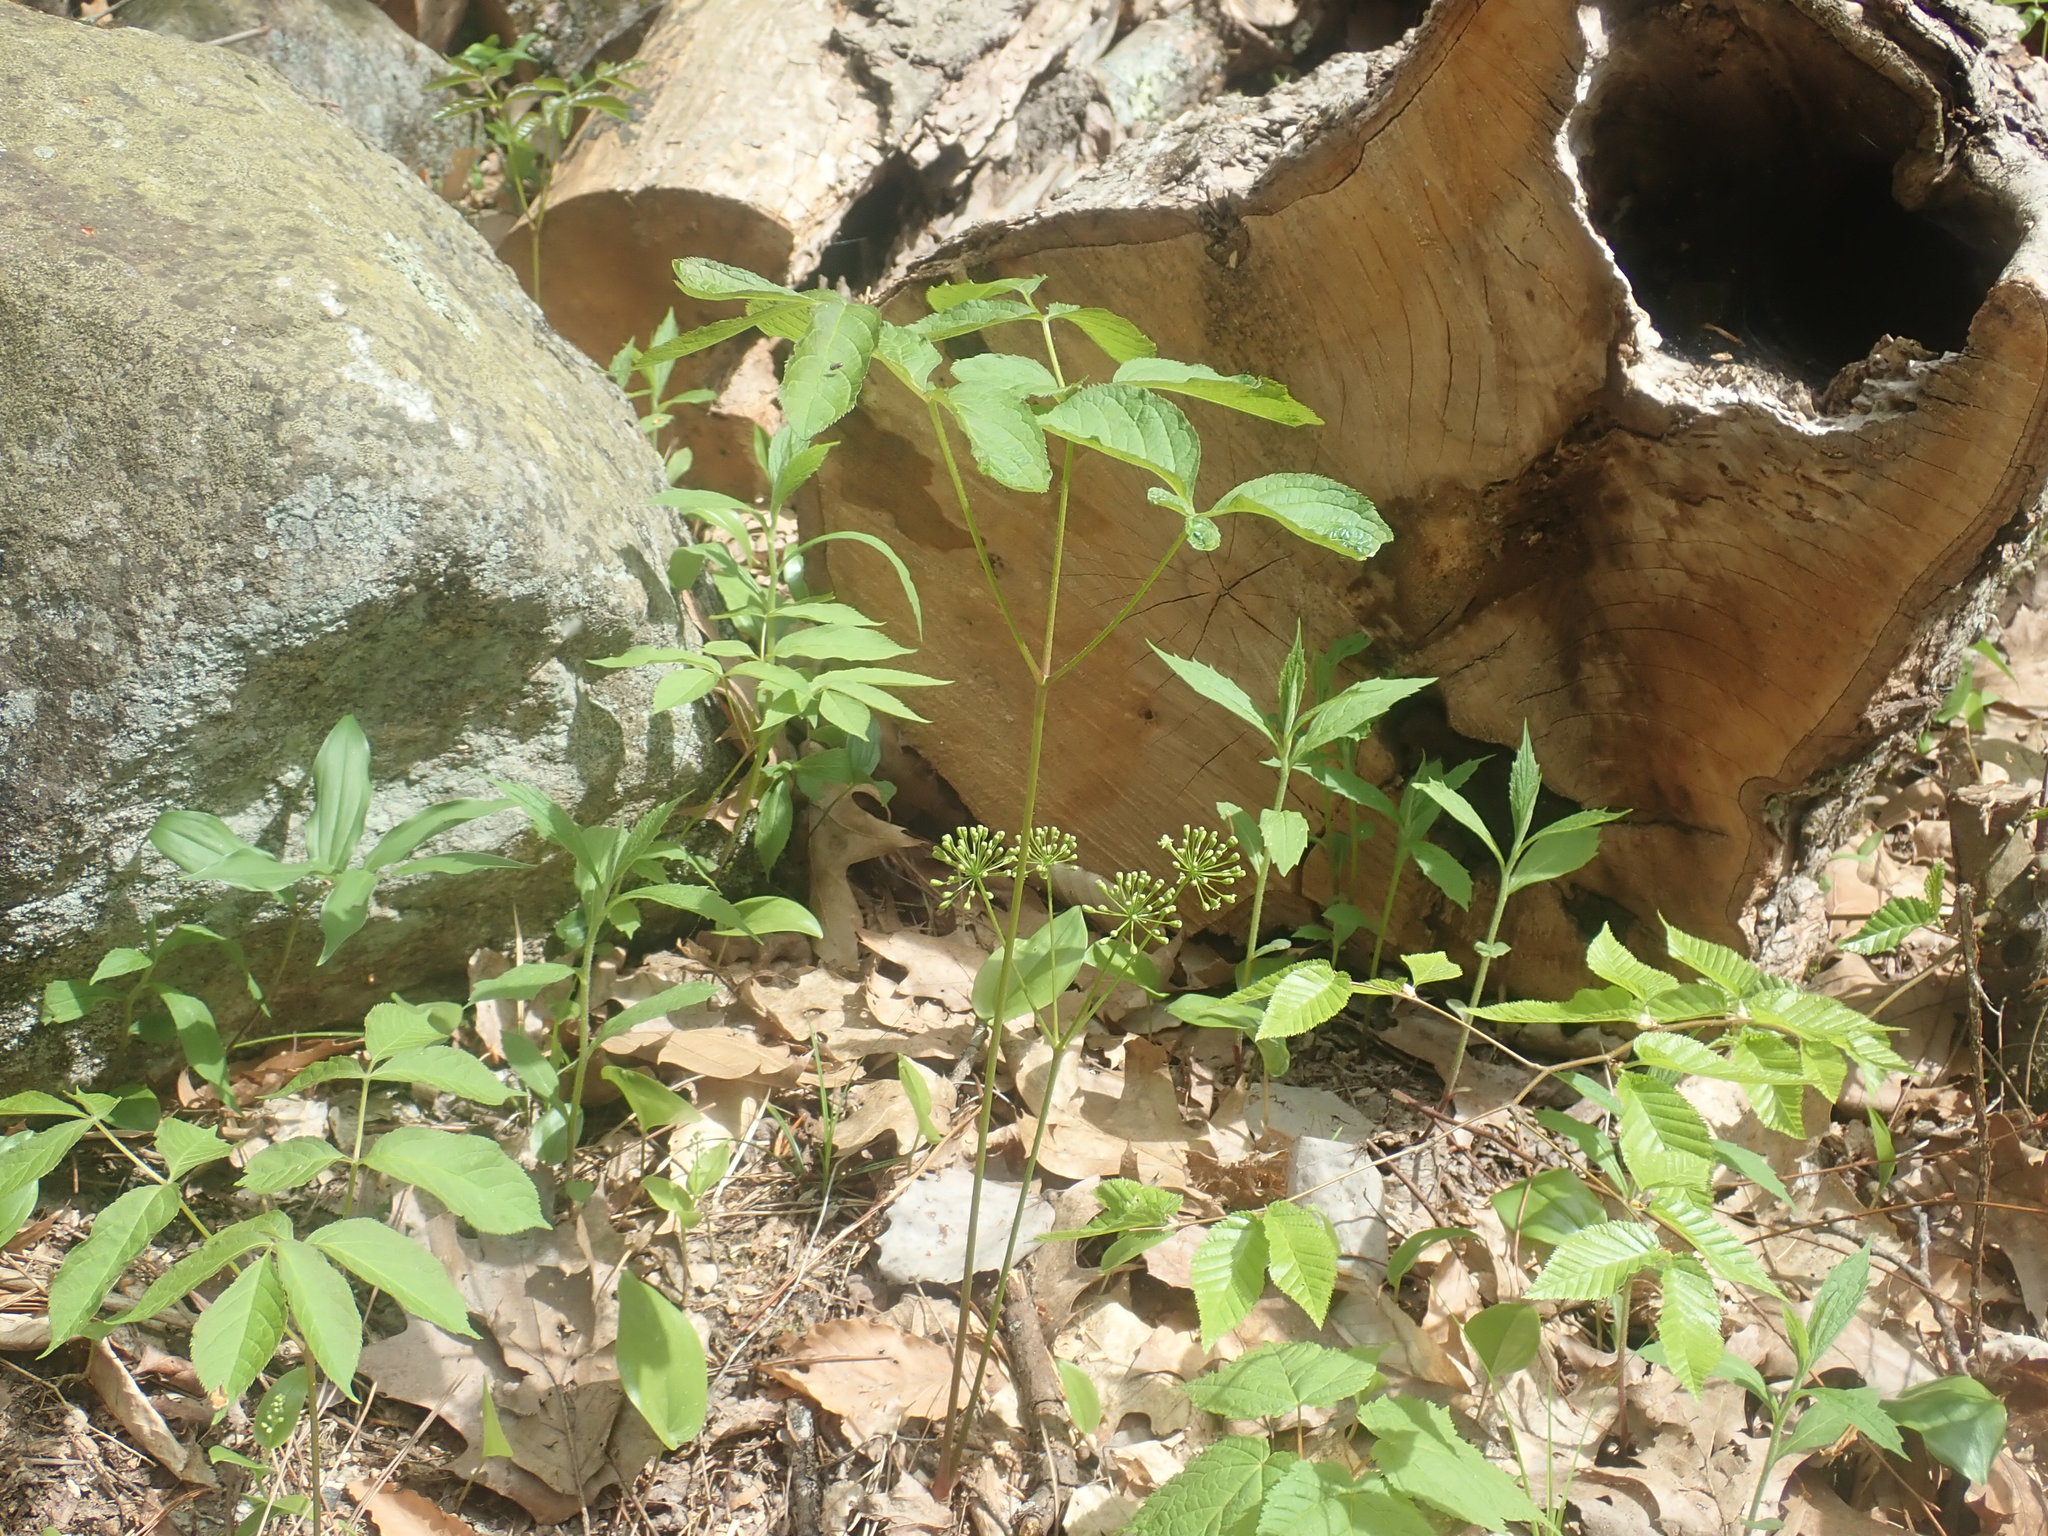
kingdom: Plantae
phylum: Tracheophyta
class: Magnoliopsida
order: Apiales
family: Araliaceae
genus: Aralia
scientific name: Aralia nudicaulis
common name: Wild sarsaparilla
